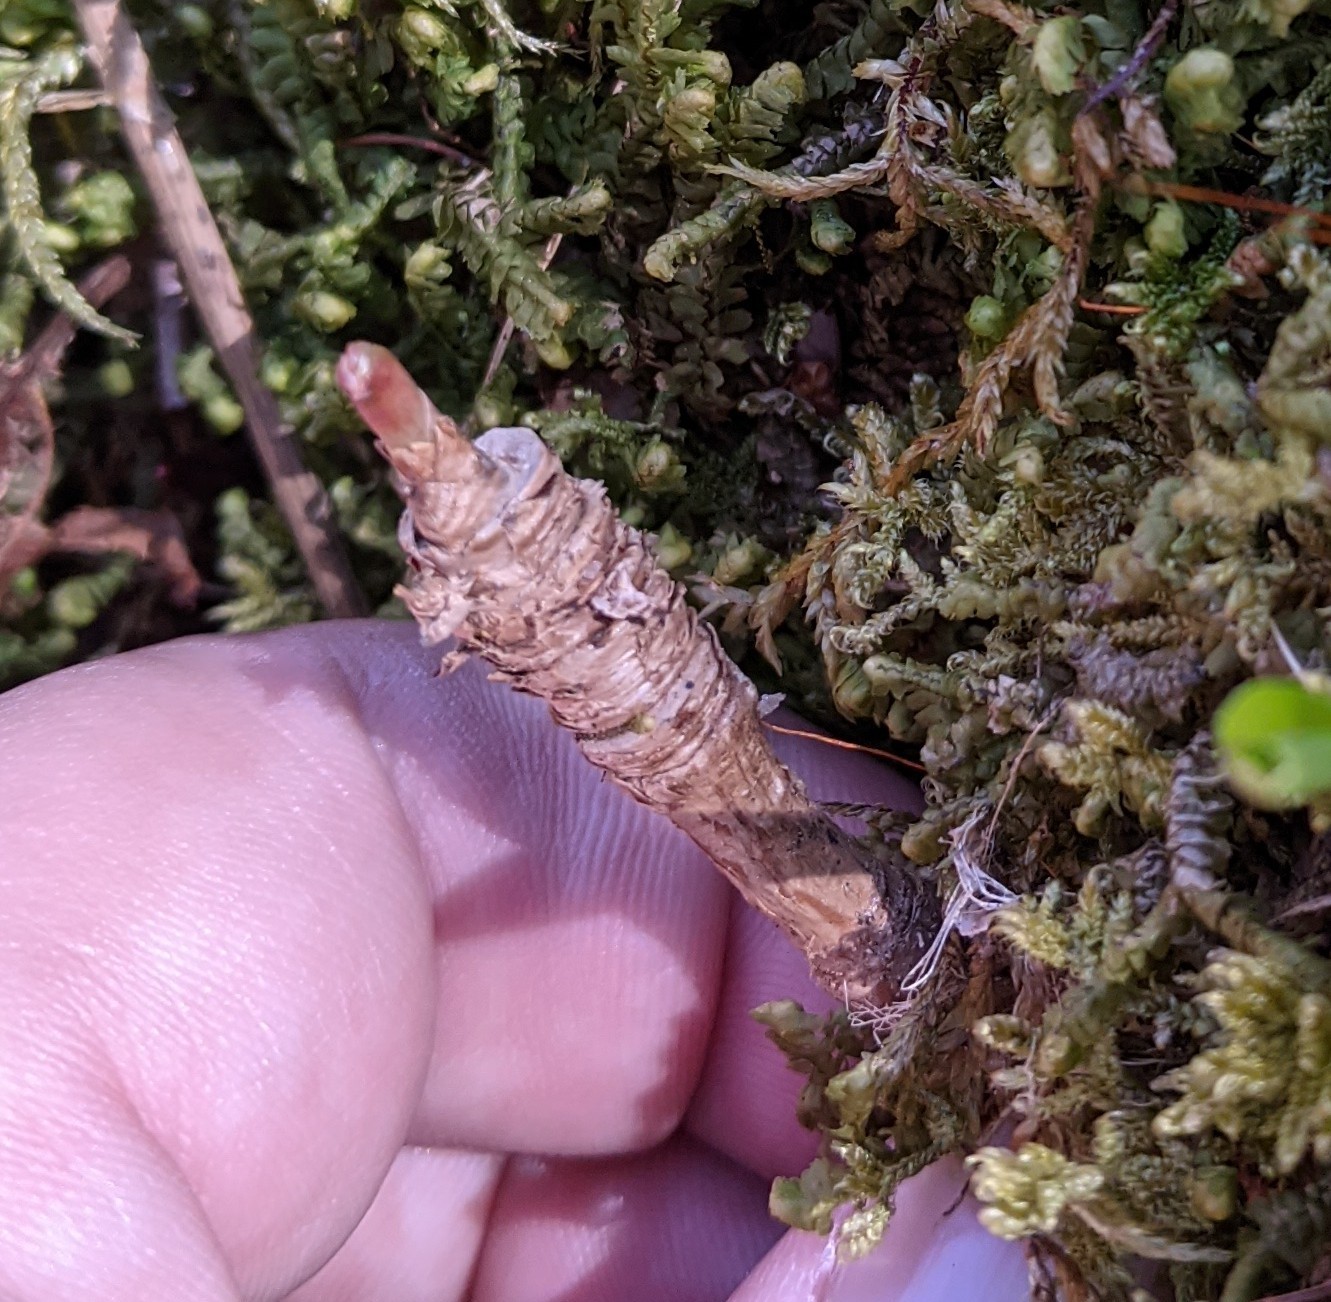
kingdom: Plantae
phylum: Tracheophyta
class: Magnoliopsida
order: Apiales
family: Araliaceae
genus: Aralia
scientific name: Aralia nudicaulis
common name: Wild sarsaparilla
